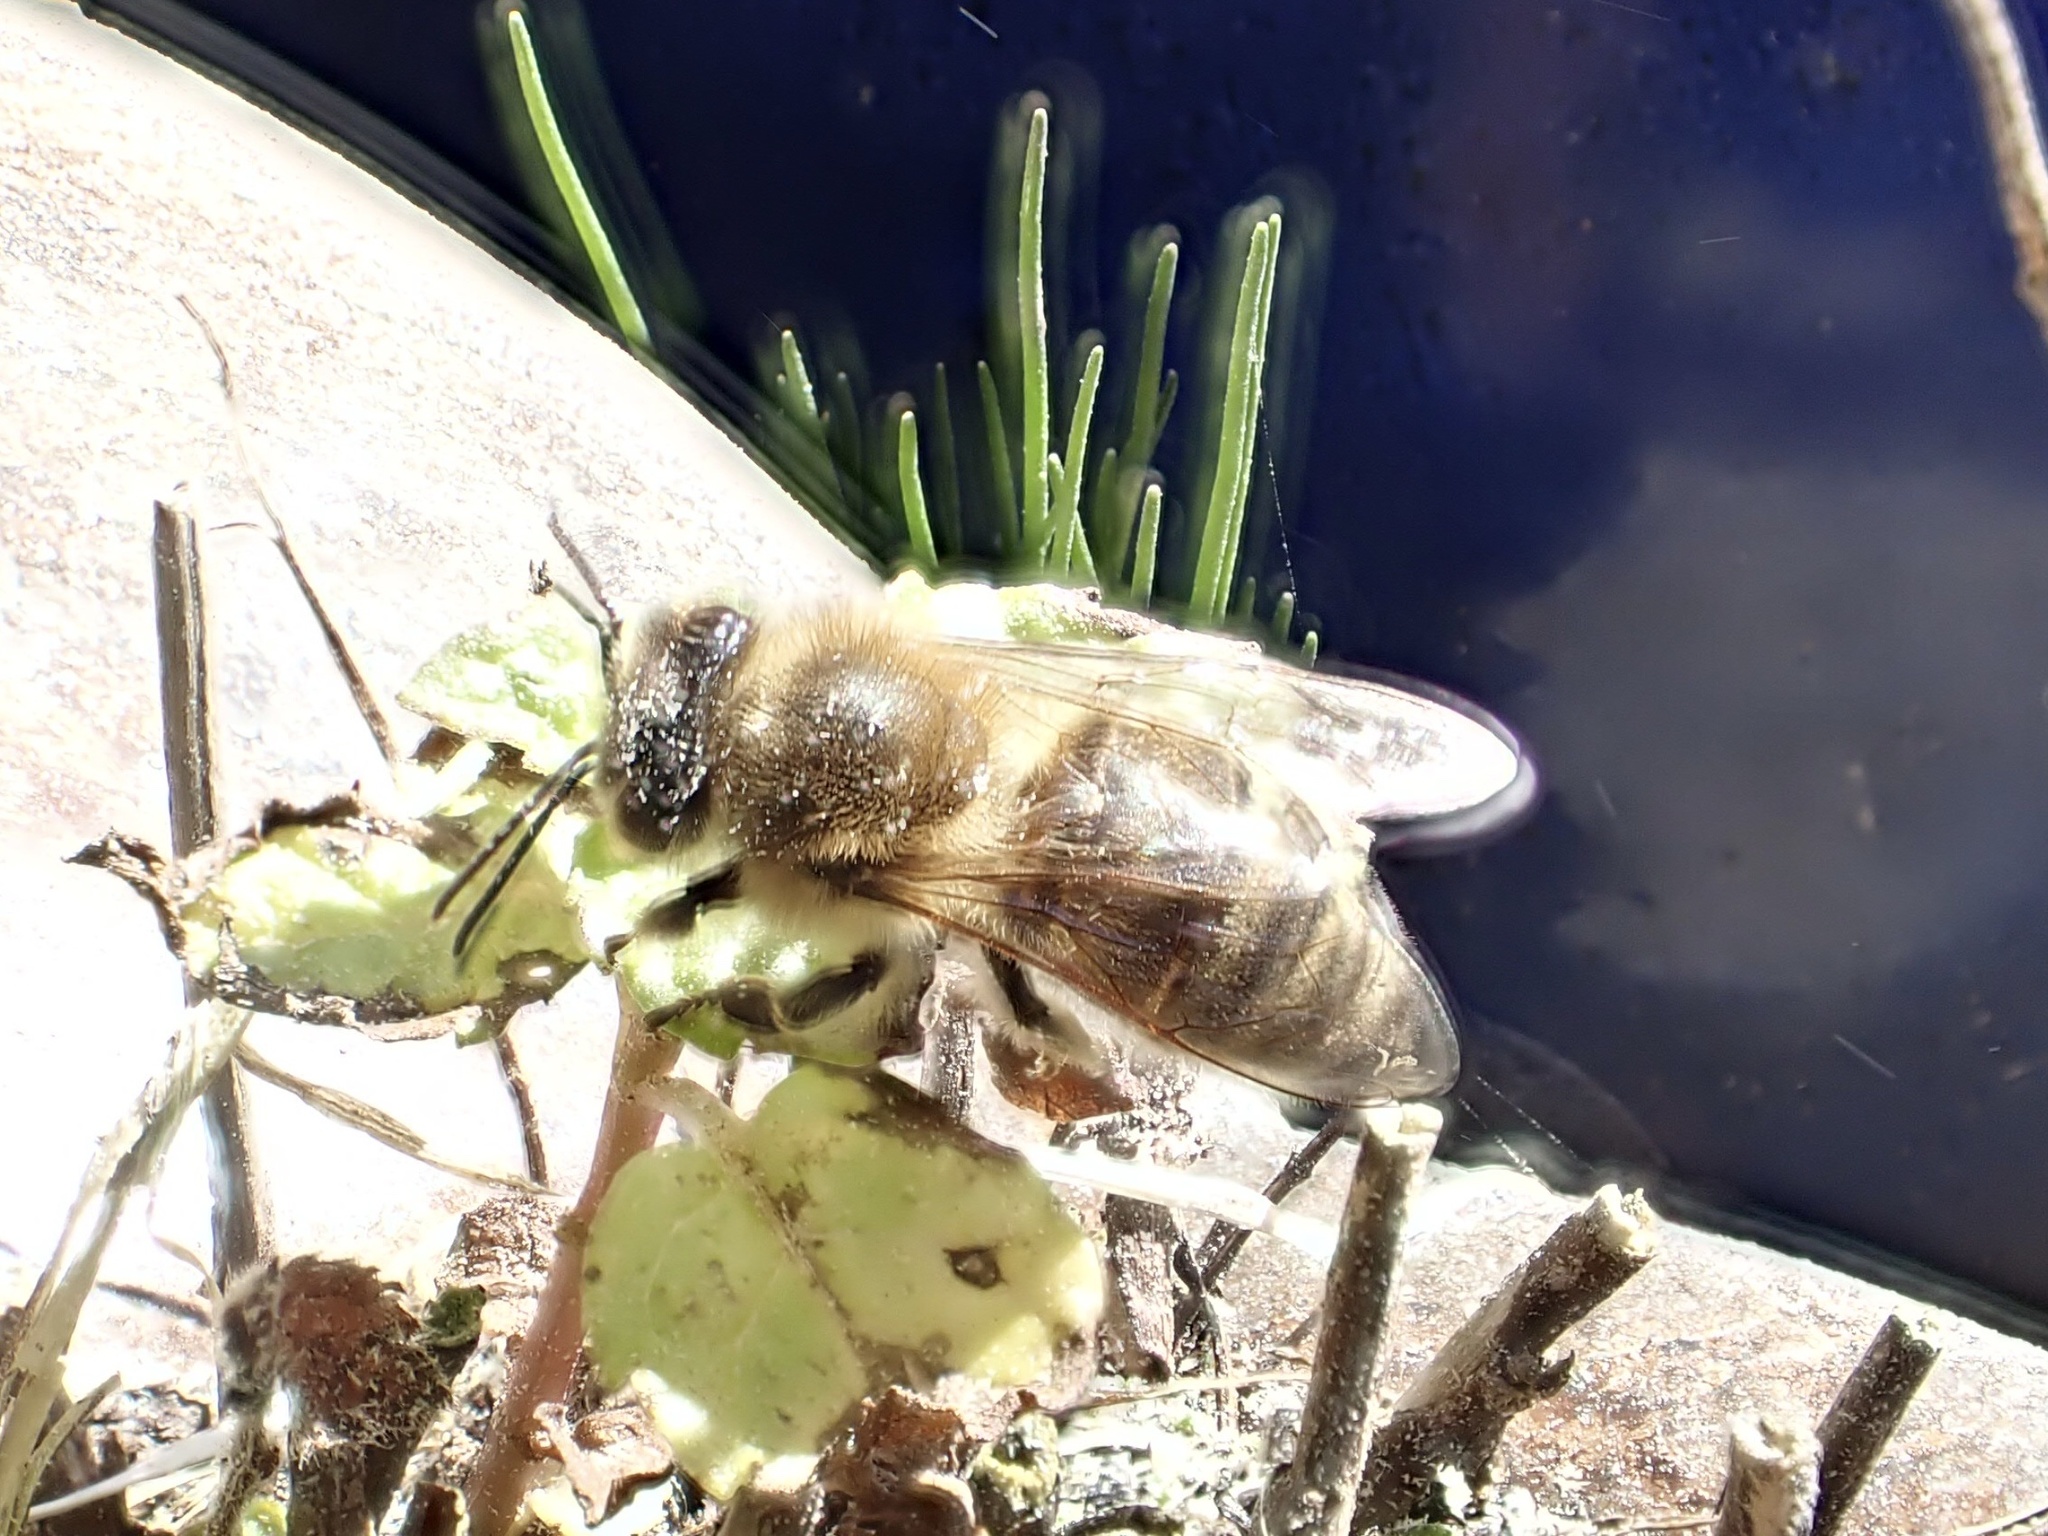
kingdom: Animalia
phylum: Arthropoda
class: Insecta
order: Hymenoptera
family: Apidae
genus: Apis
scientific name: Apis mellifera
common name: Honey bee
